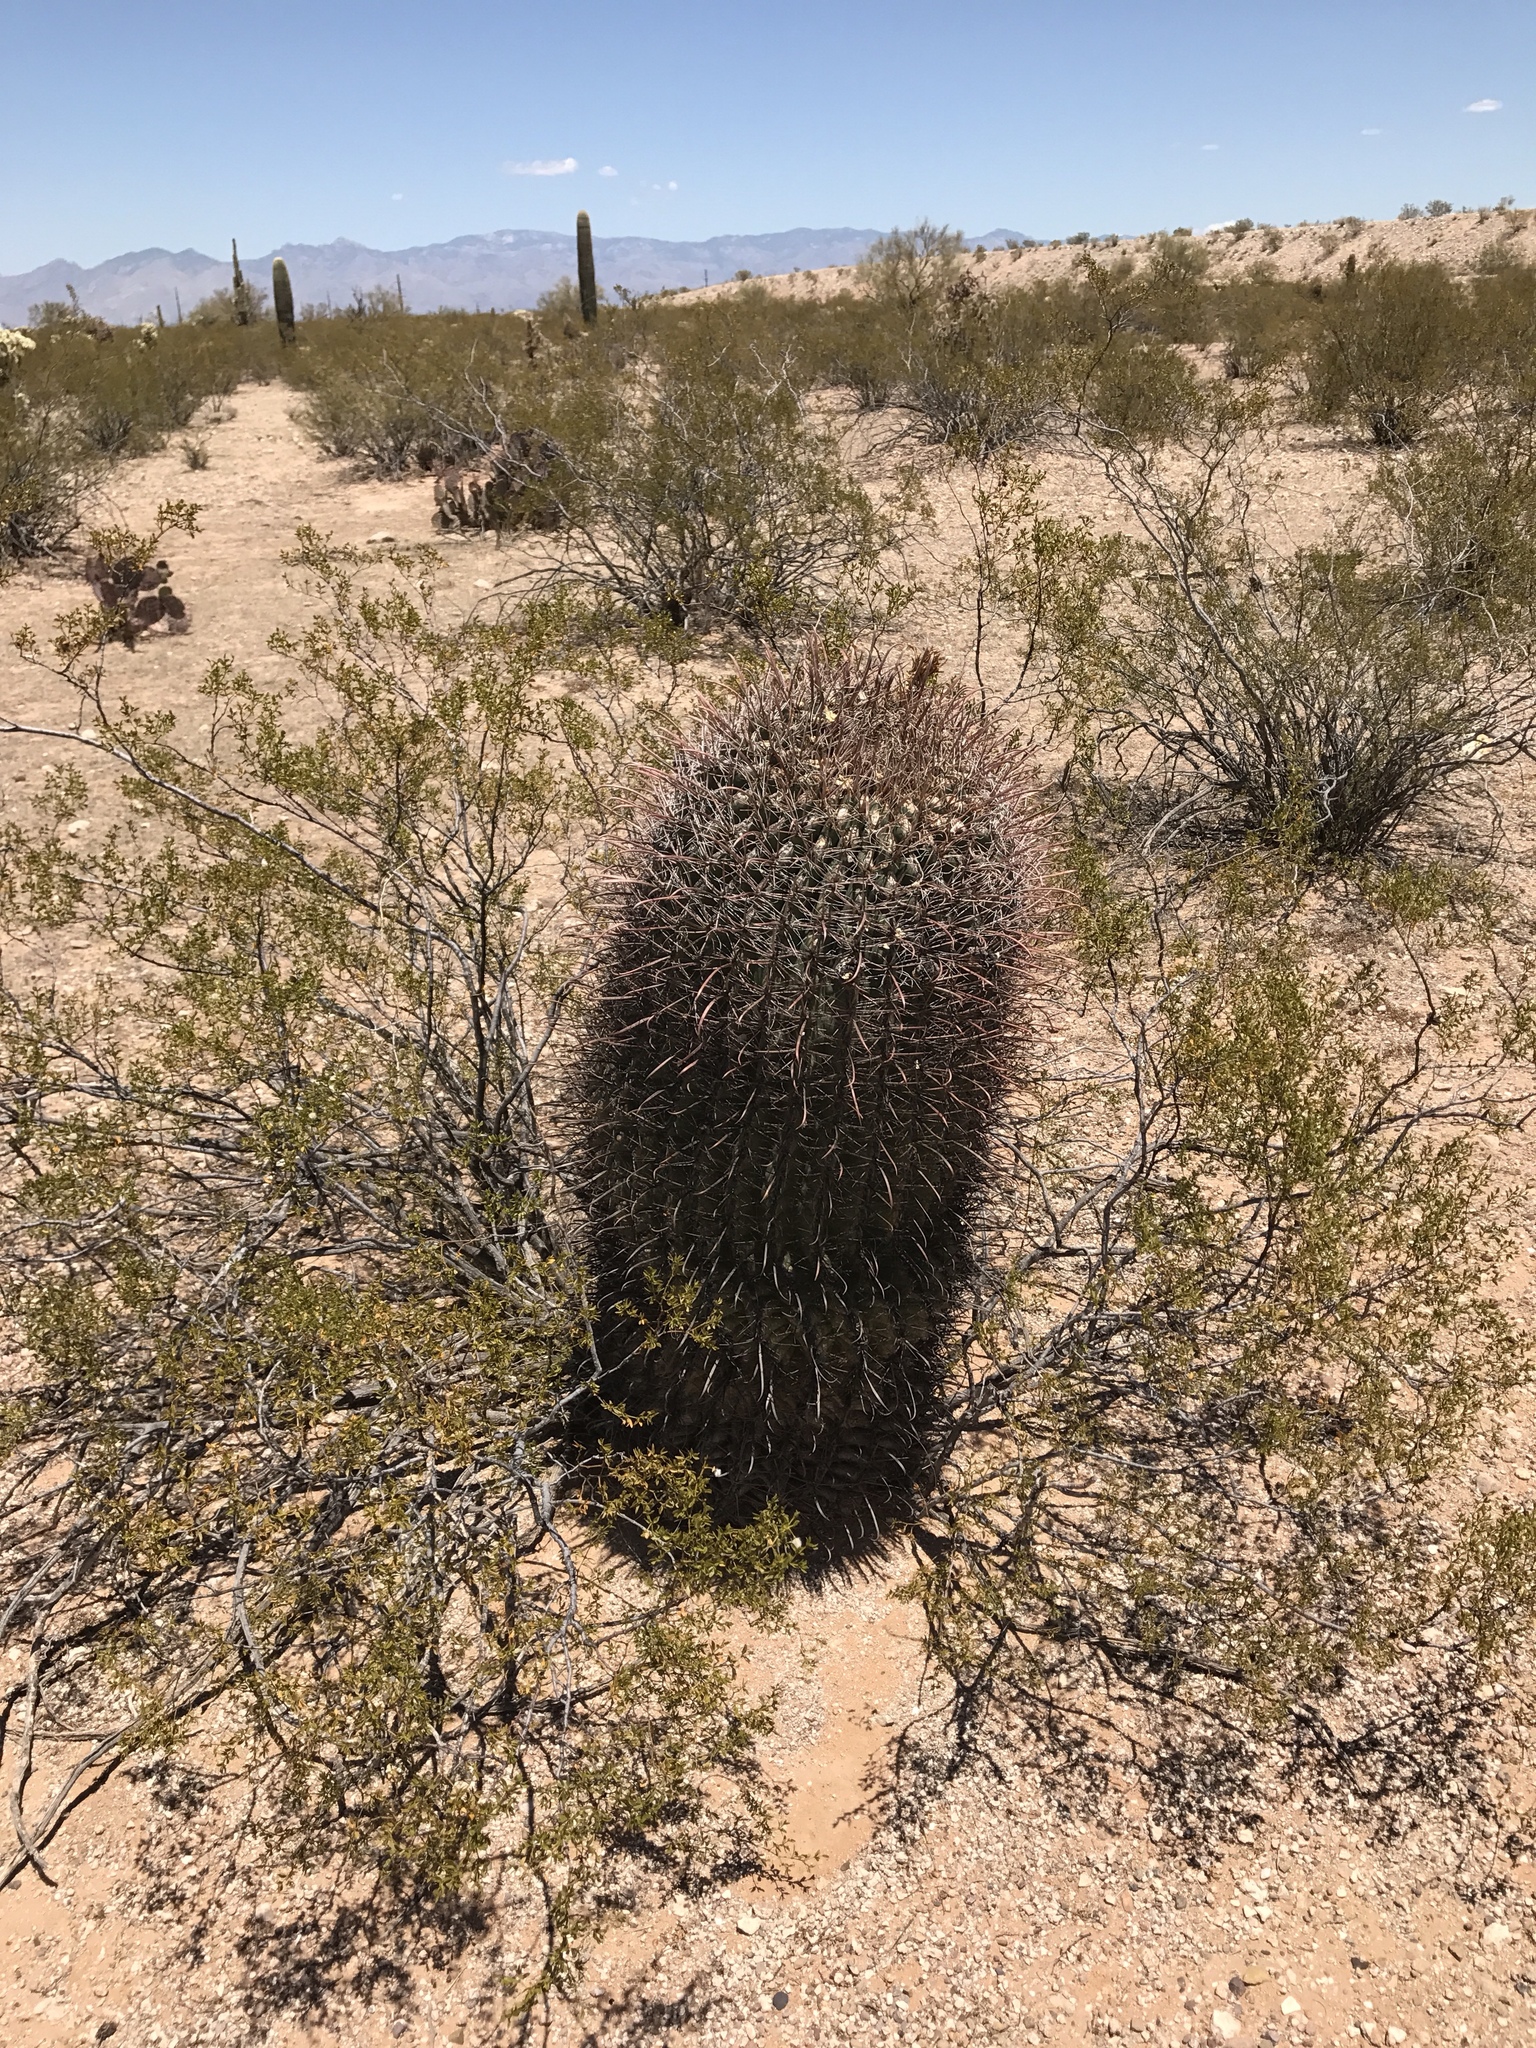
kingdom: Plantae
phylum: Tracheophyta
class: Magnoliopsida
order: Caryophyllales
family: Cactaceae
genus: Ferocactus
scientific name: Ferocactus wislizeni
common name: Candy barrel cactus
